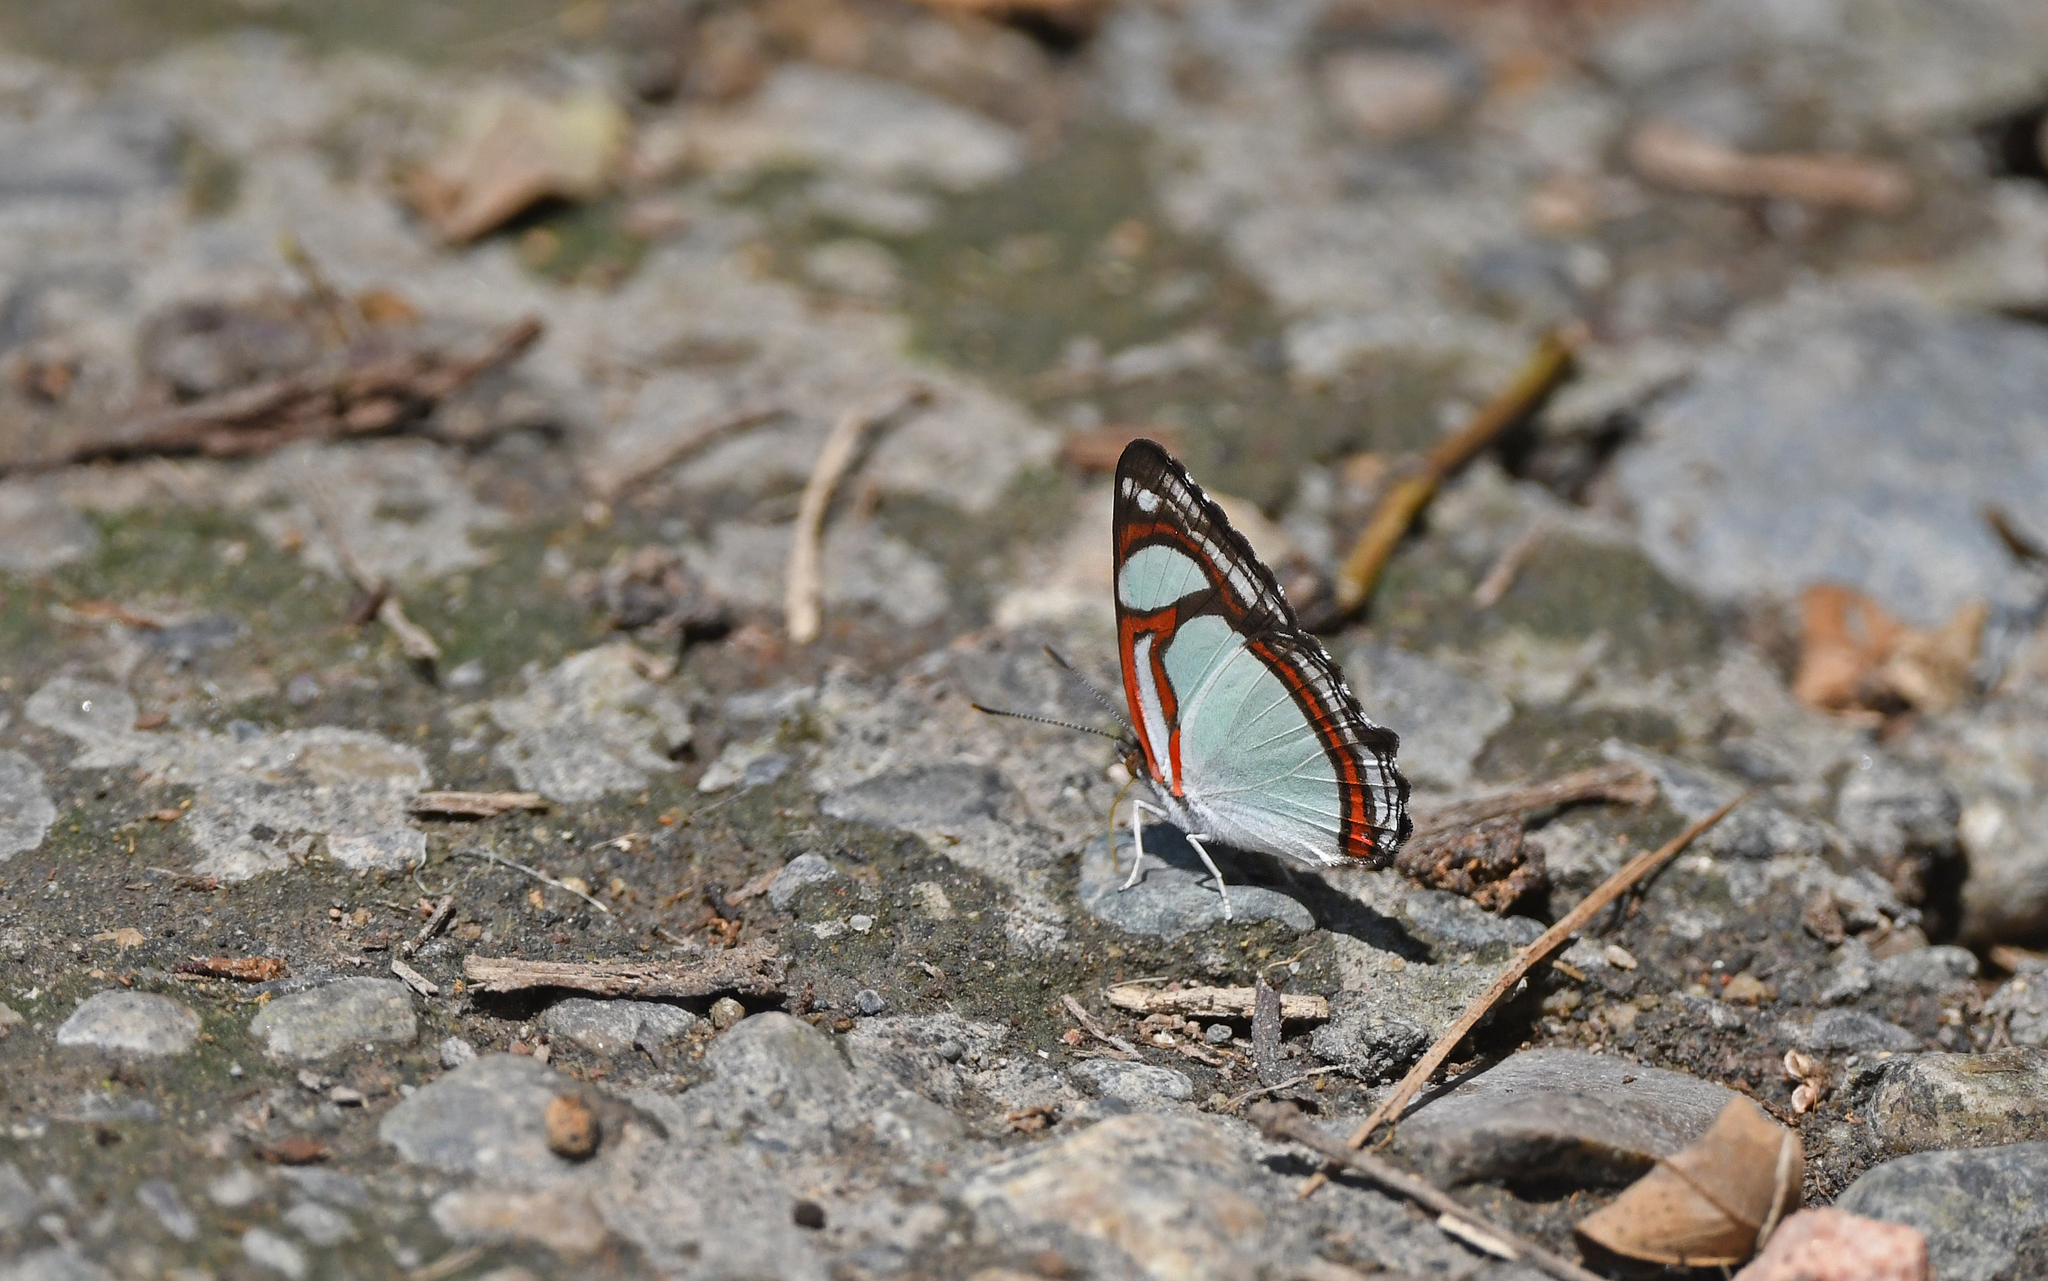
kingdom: Animalia
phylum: Arthropoda
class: Insecta
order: Lepidoptera
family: Nymphalidae
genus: Pyrrhogyra
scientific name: Pyrrhogyra otolais
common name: Double-banded banner
